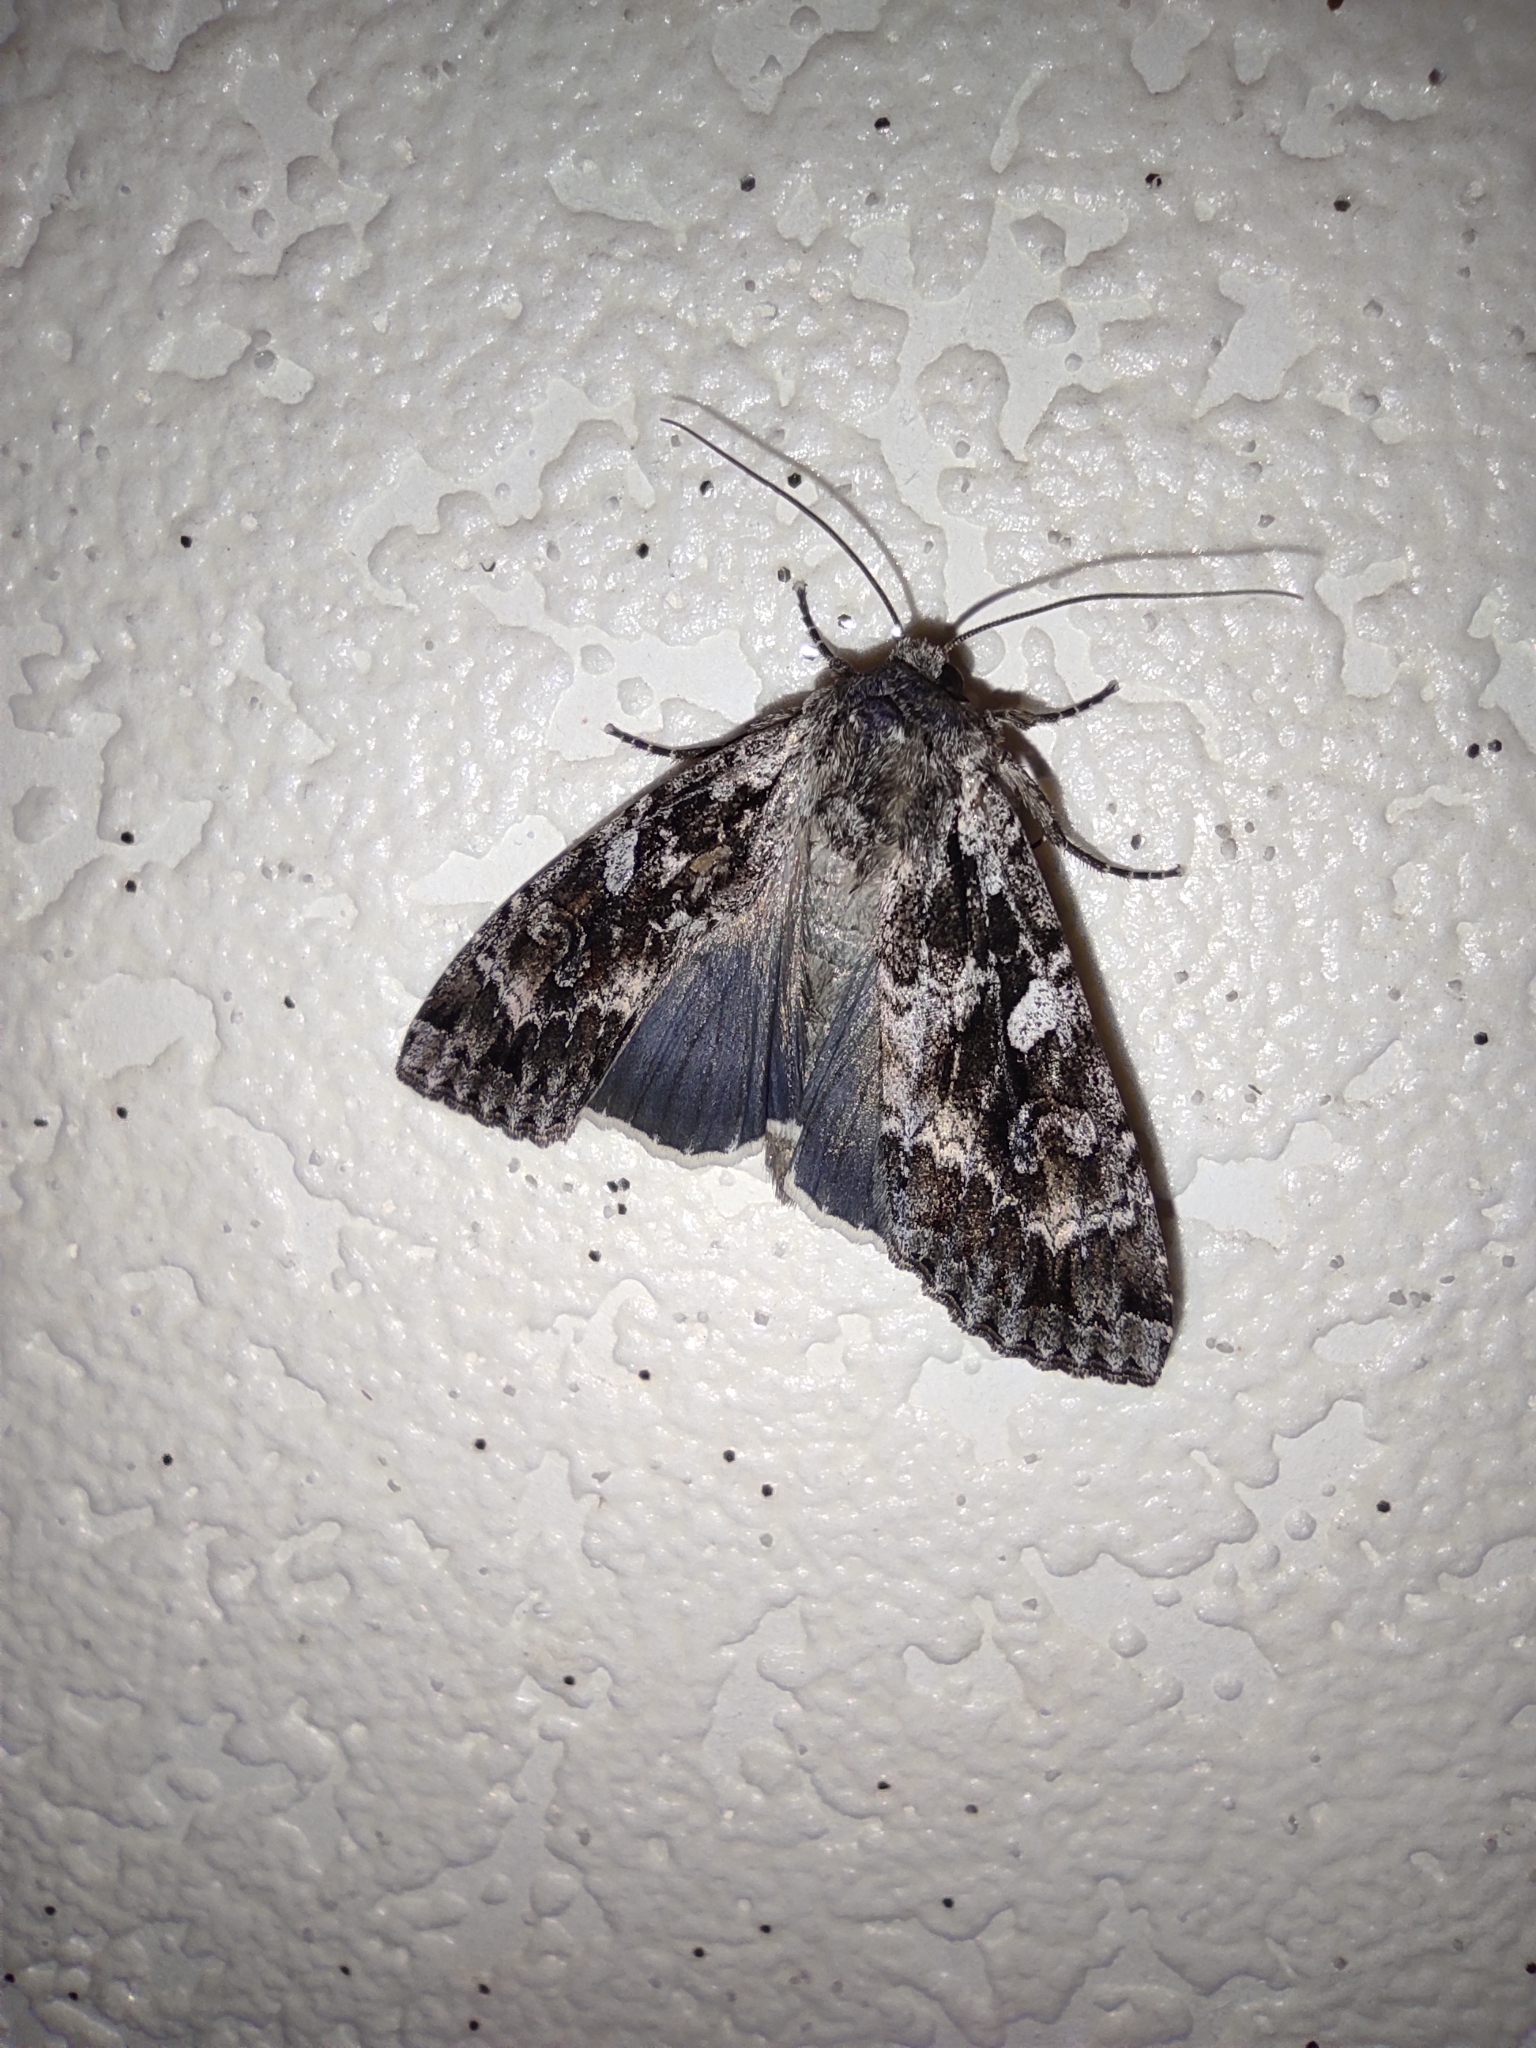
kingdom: Animalia
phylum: Arthropoda
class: Insecta
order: Lepidoptera
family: Noctuidae
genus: Eurois
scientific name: Eurois occulta
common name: Great brocade
